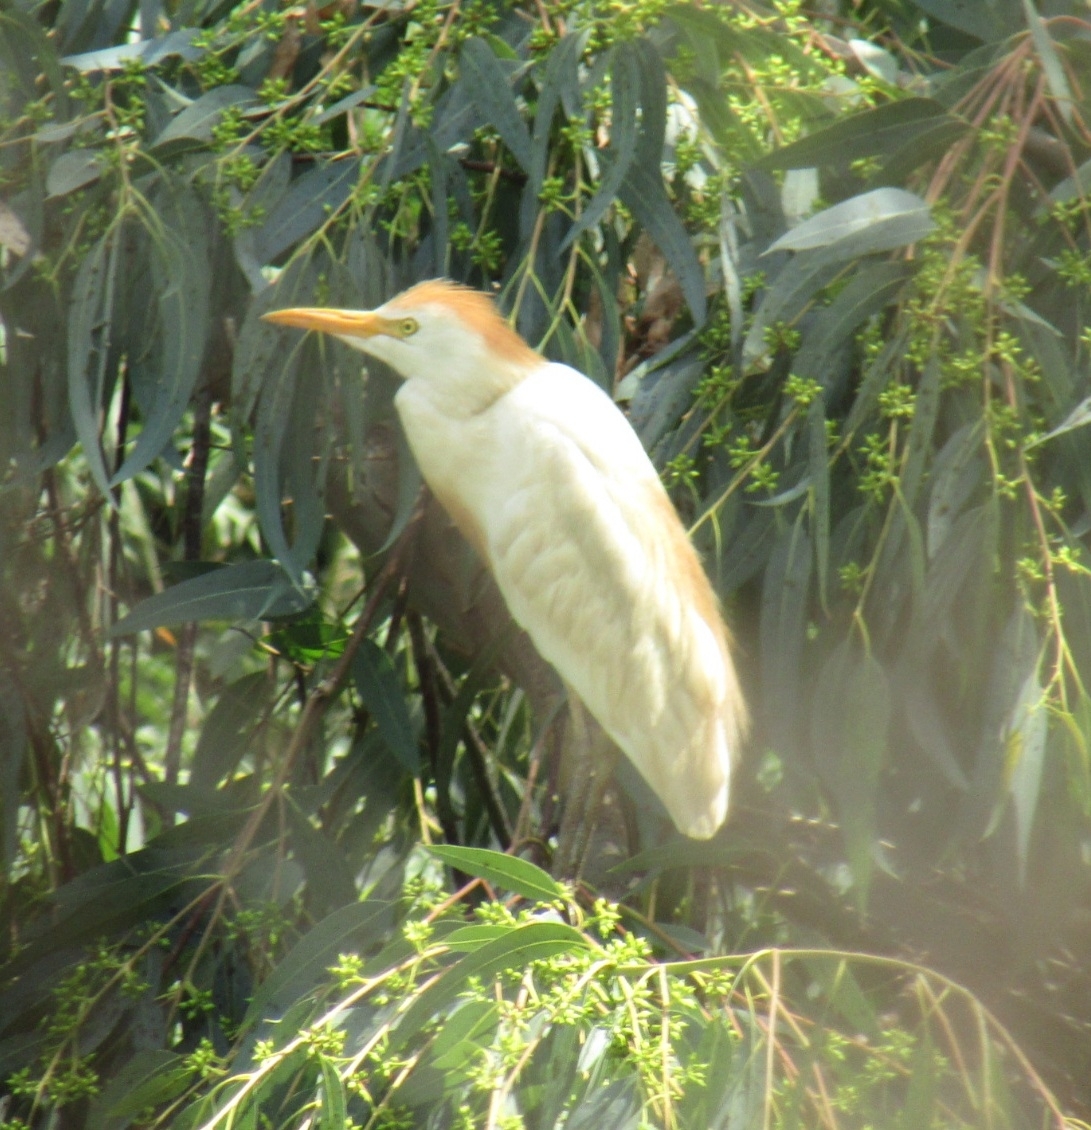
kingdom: Animalia
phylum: Chordata
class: Aves
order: Pelecaniformes
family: Ardeidae
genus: Bubulcus
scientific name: Bubulcus ibis
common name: Cattle egret
